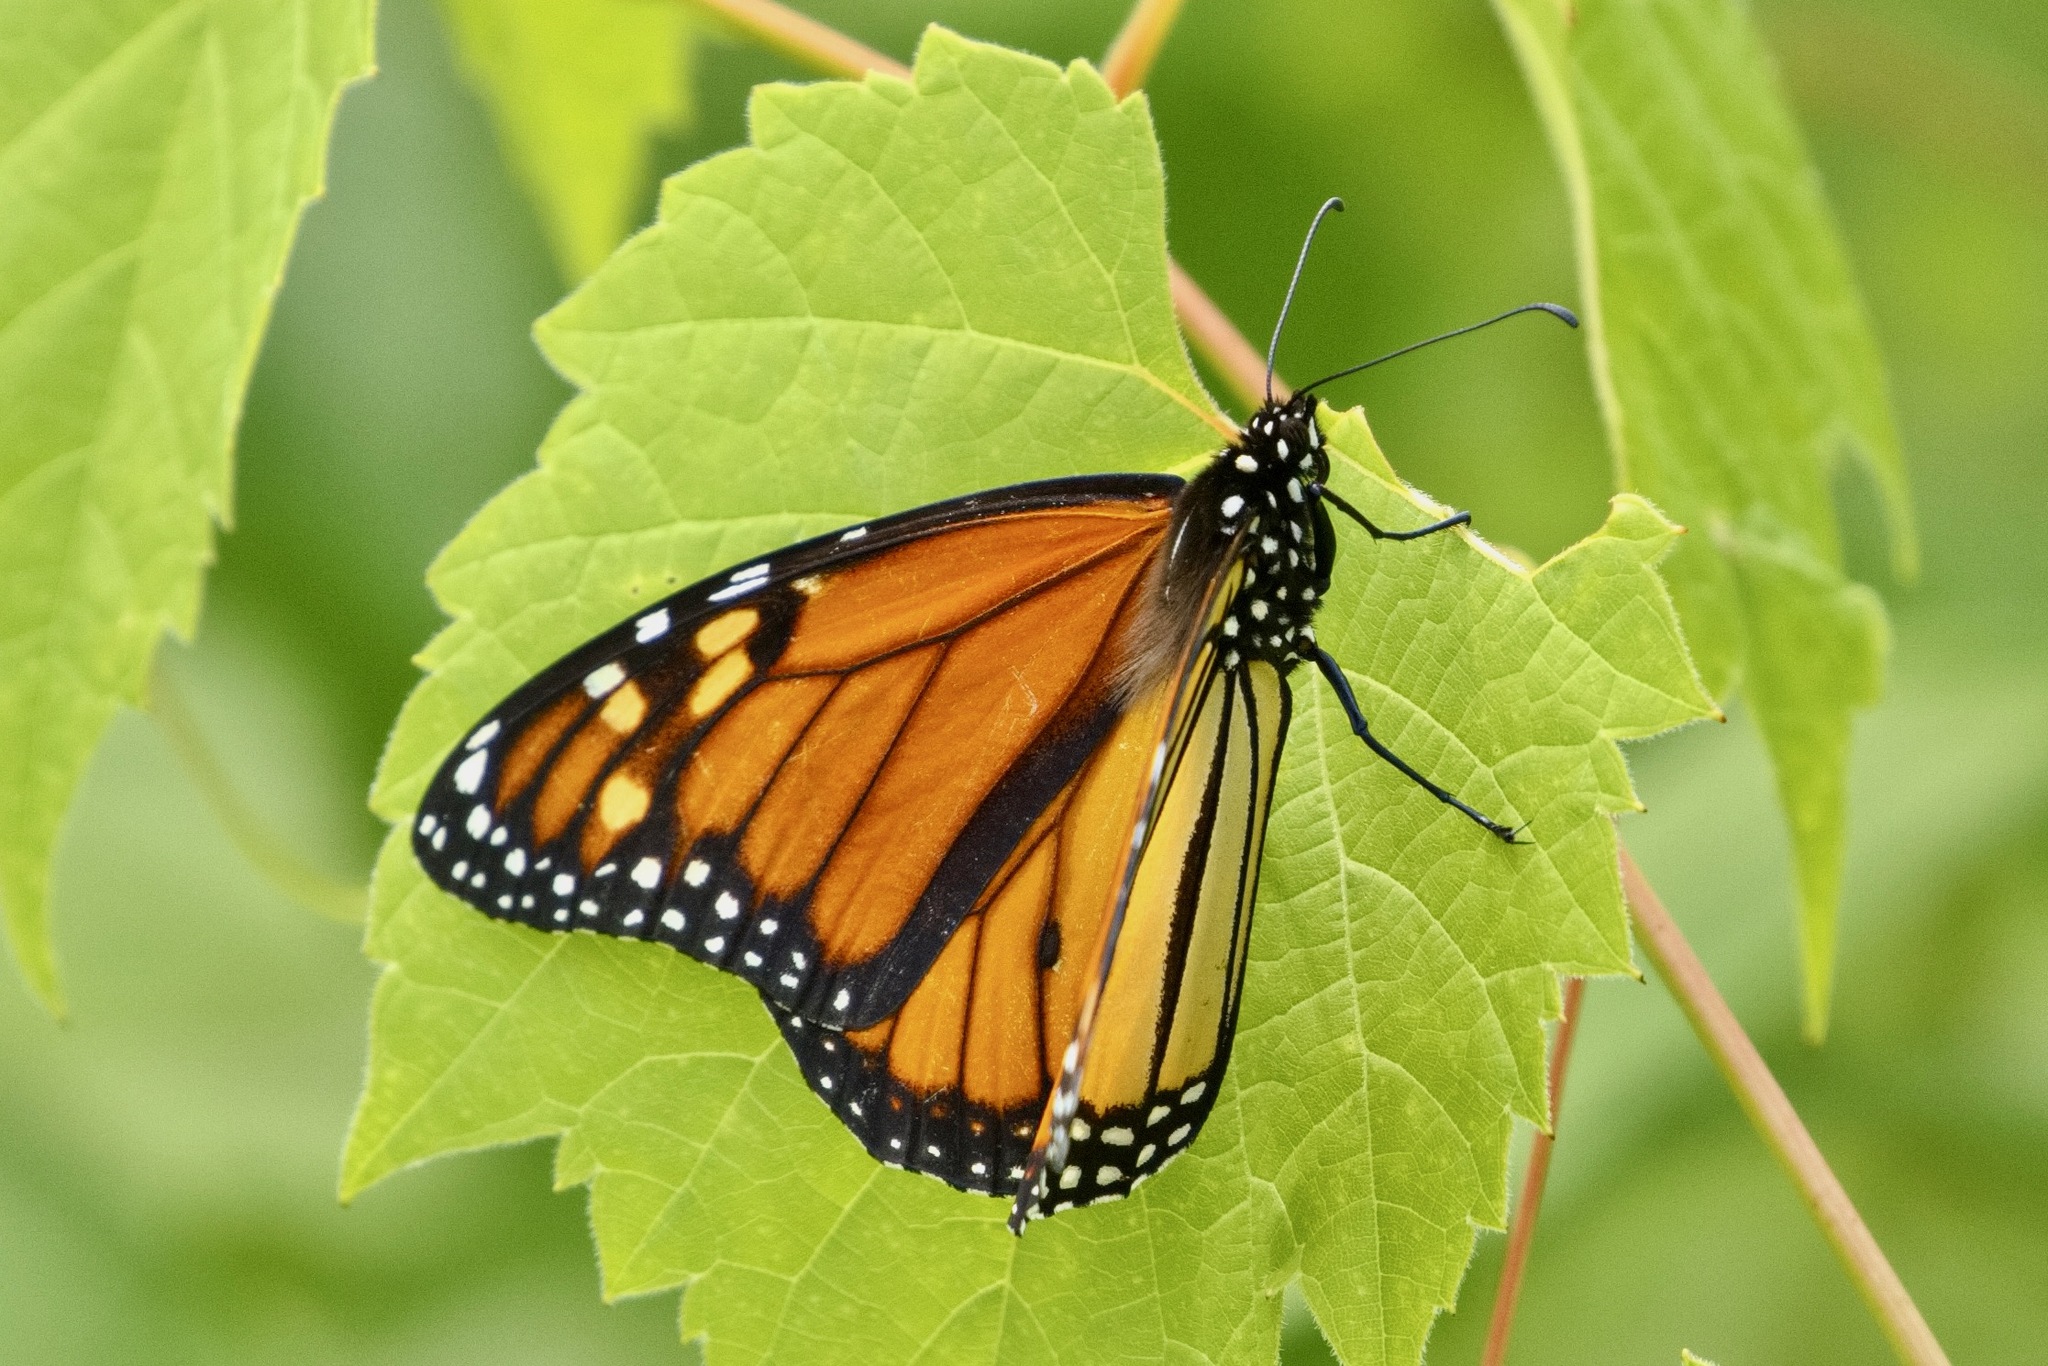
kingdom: Animalia
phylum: Arthropoda
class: Insecta
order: Lepidoptera
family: Nymphalidae
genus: Danaus
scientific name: Danaus plexippus
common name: Monarch
